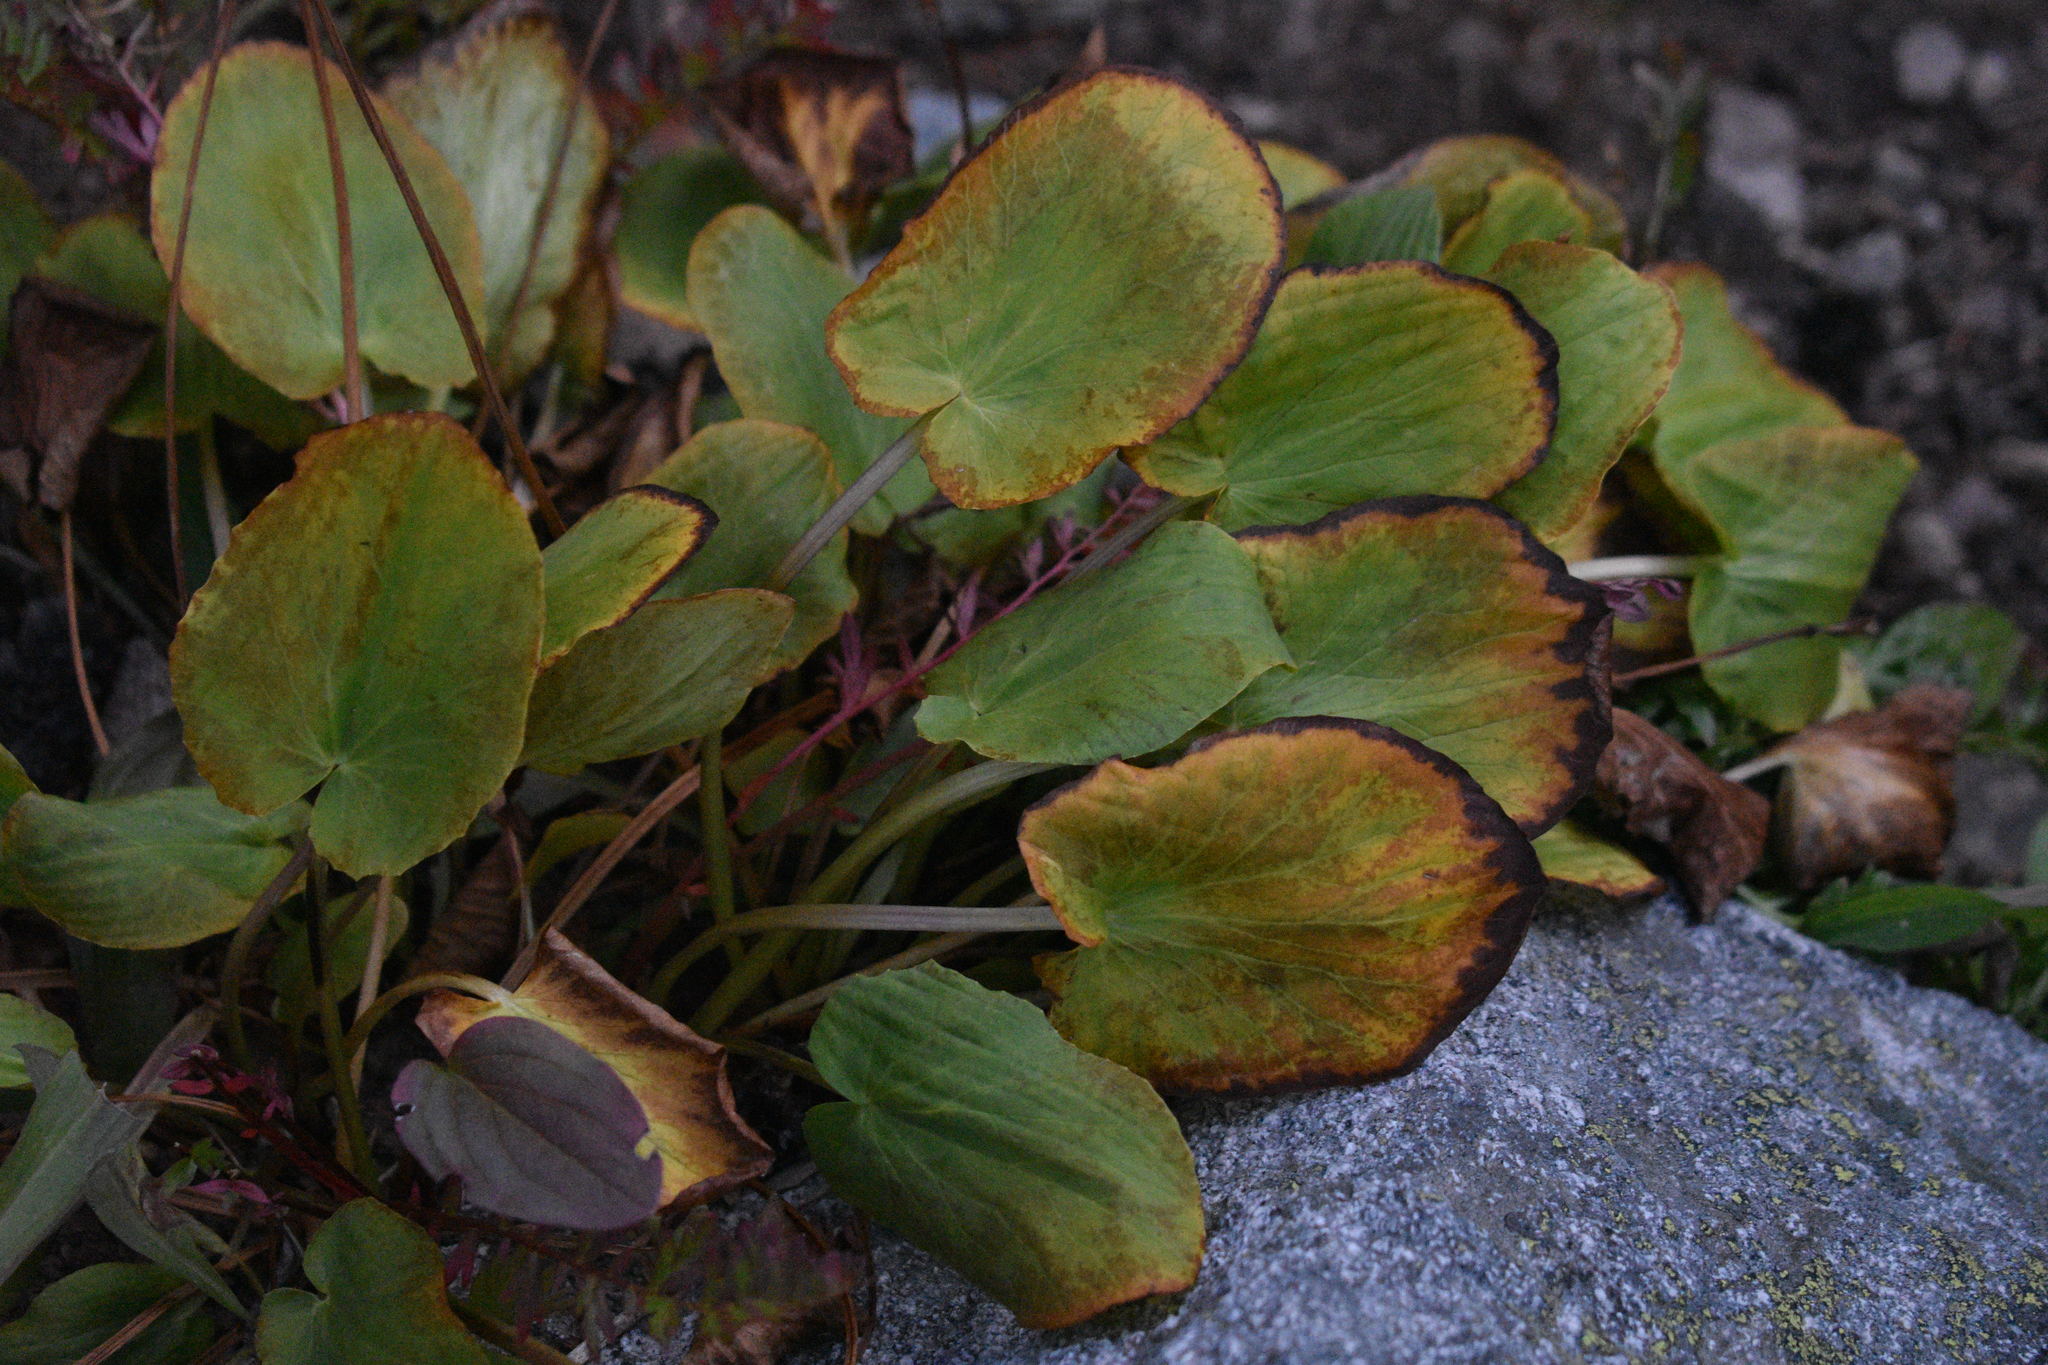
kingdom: Plantae
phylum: Tracheophyta
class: Magnoliopsida
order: Ranunculales
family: Ranunculaceae
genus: Caltha
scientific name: Caltha leptosepala
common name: Elkslip
